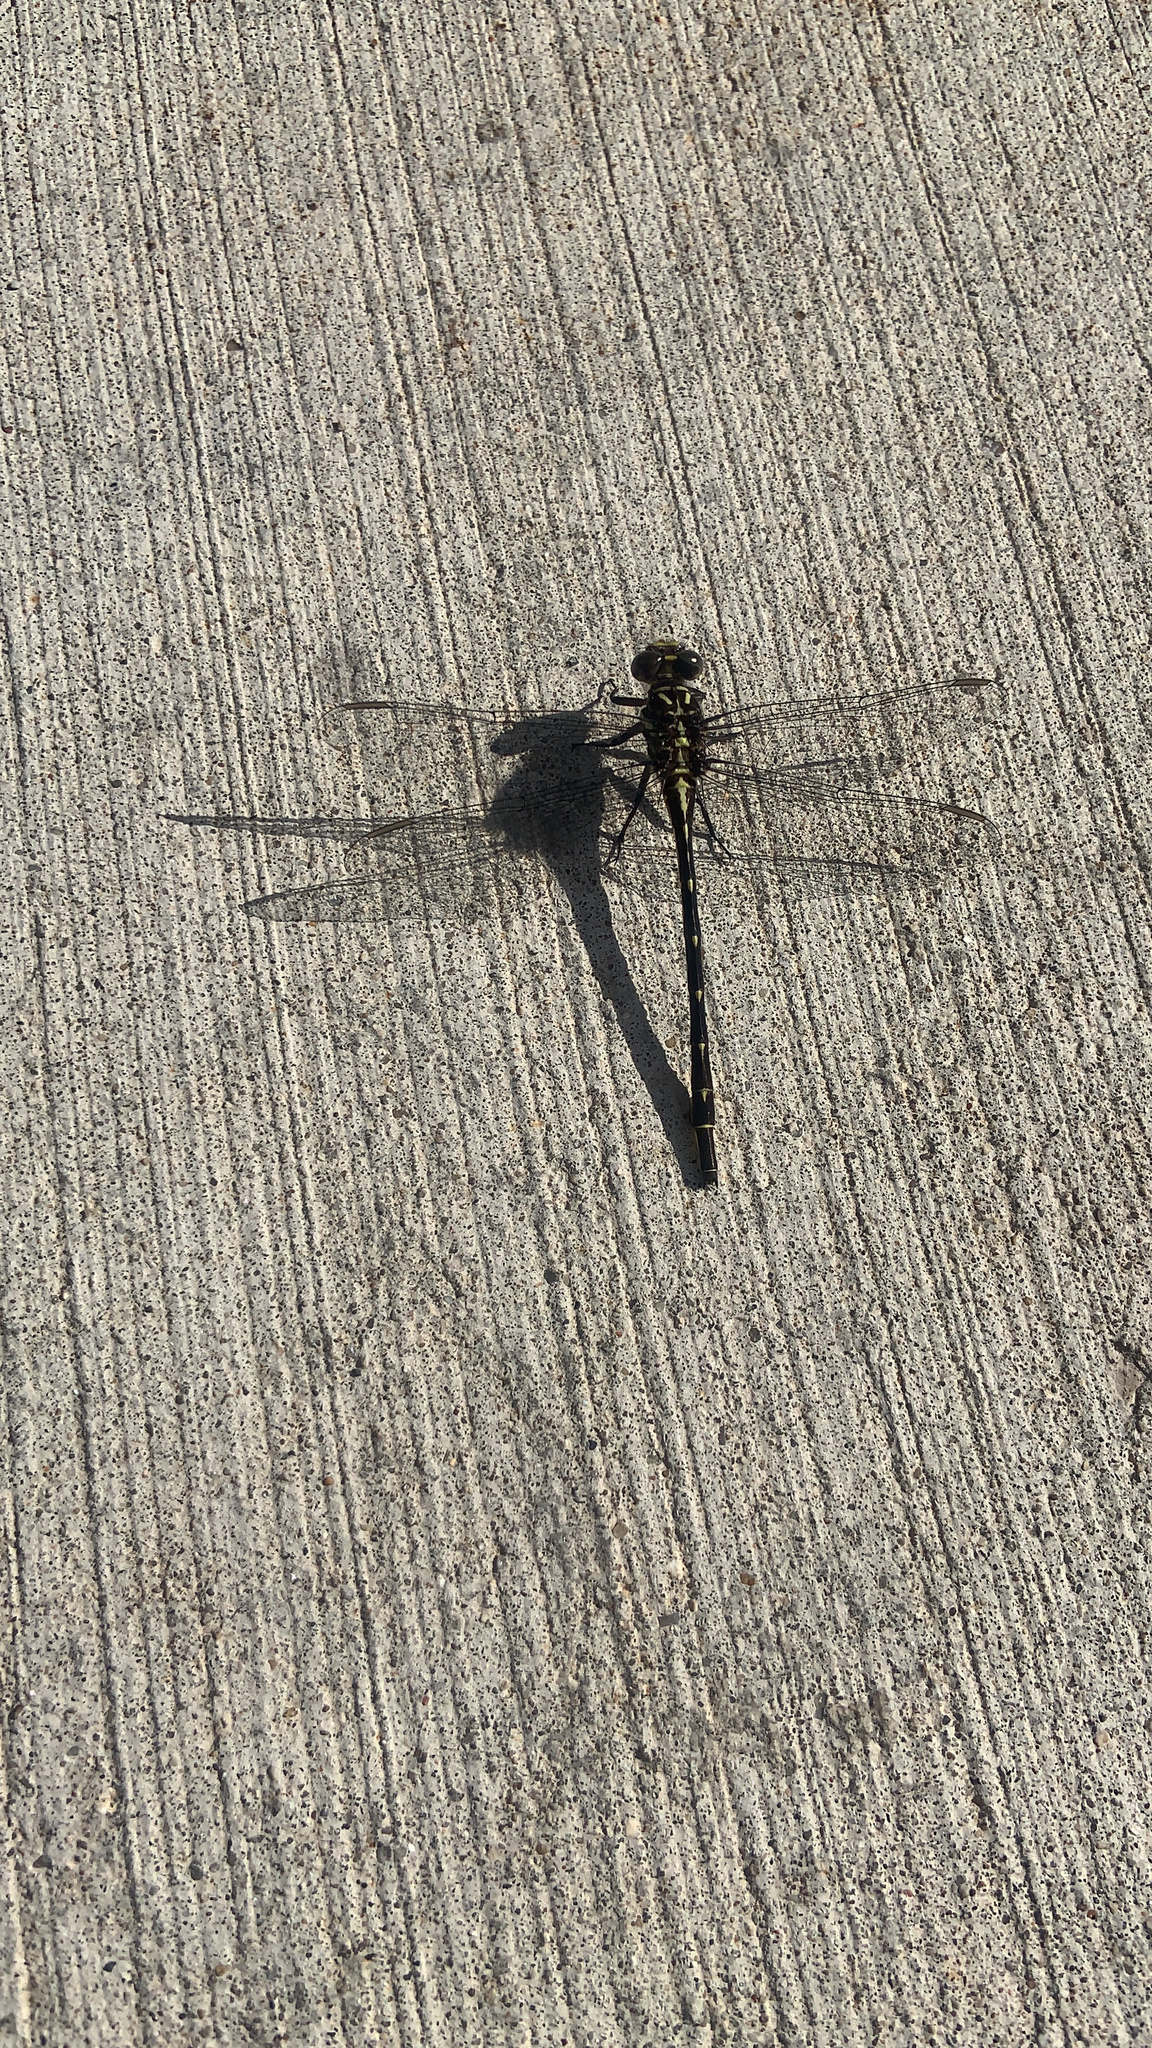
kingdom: Animalia
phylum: Arthropoda
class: Insecta
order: Odonata
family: Gomphidae
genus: Stylurus
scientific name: Stylurus spiniceps
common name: Arrow clubtail
